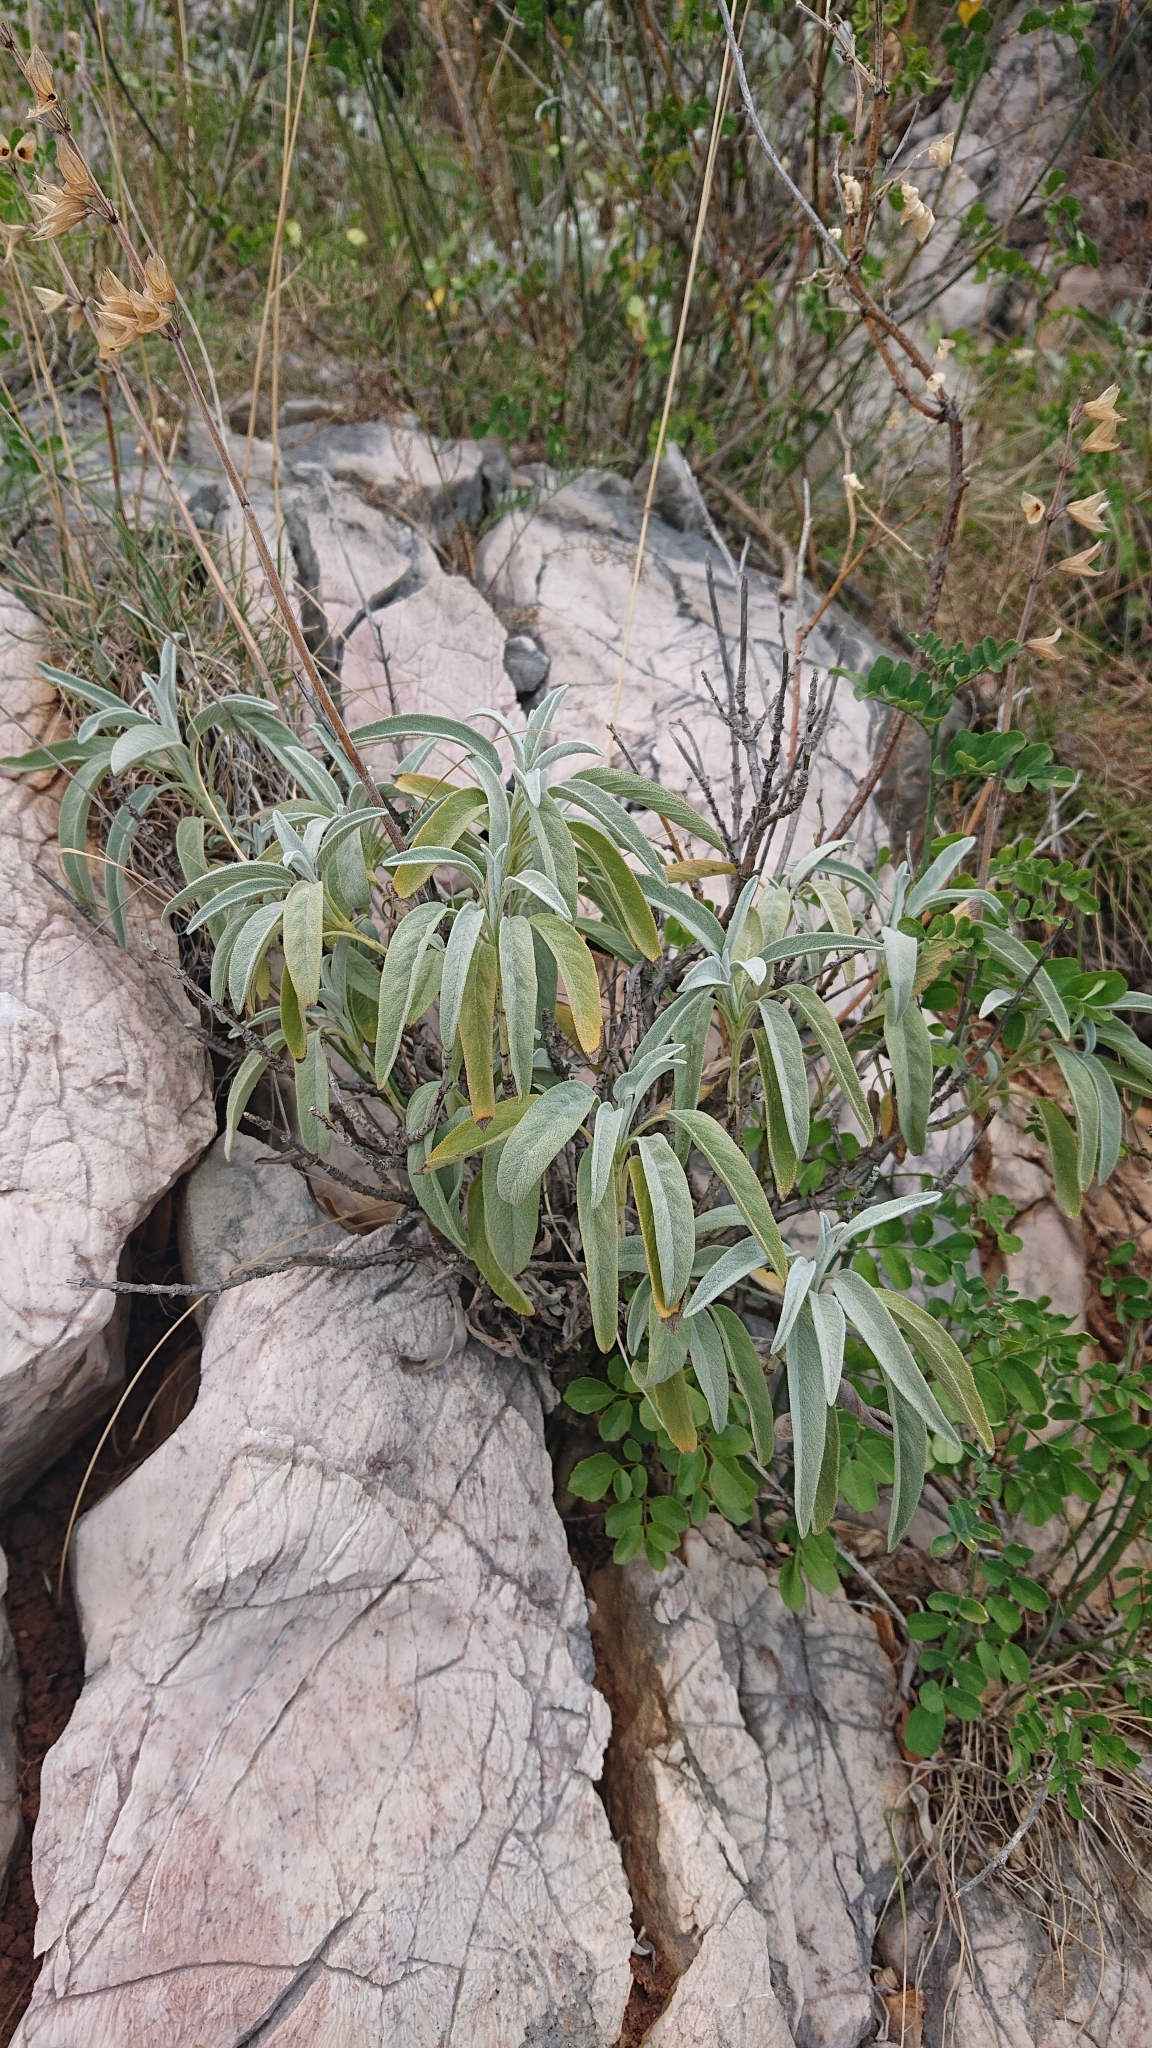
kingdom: Plantae
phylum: Tracheophyta
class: Magnoliopsida
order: Lamiales
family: Lamiaceae
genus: Salvia
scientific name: Salvia officinalis
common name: Sage
